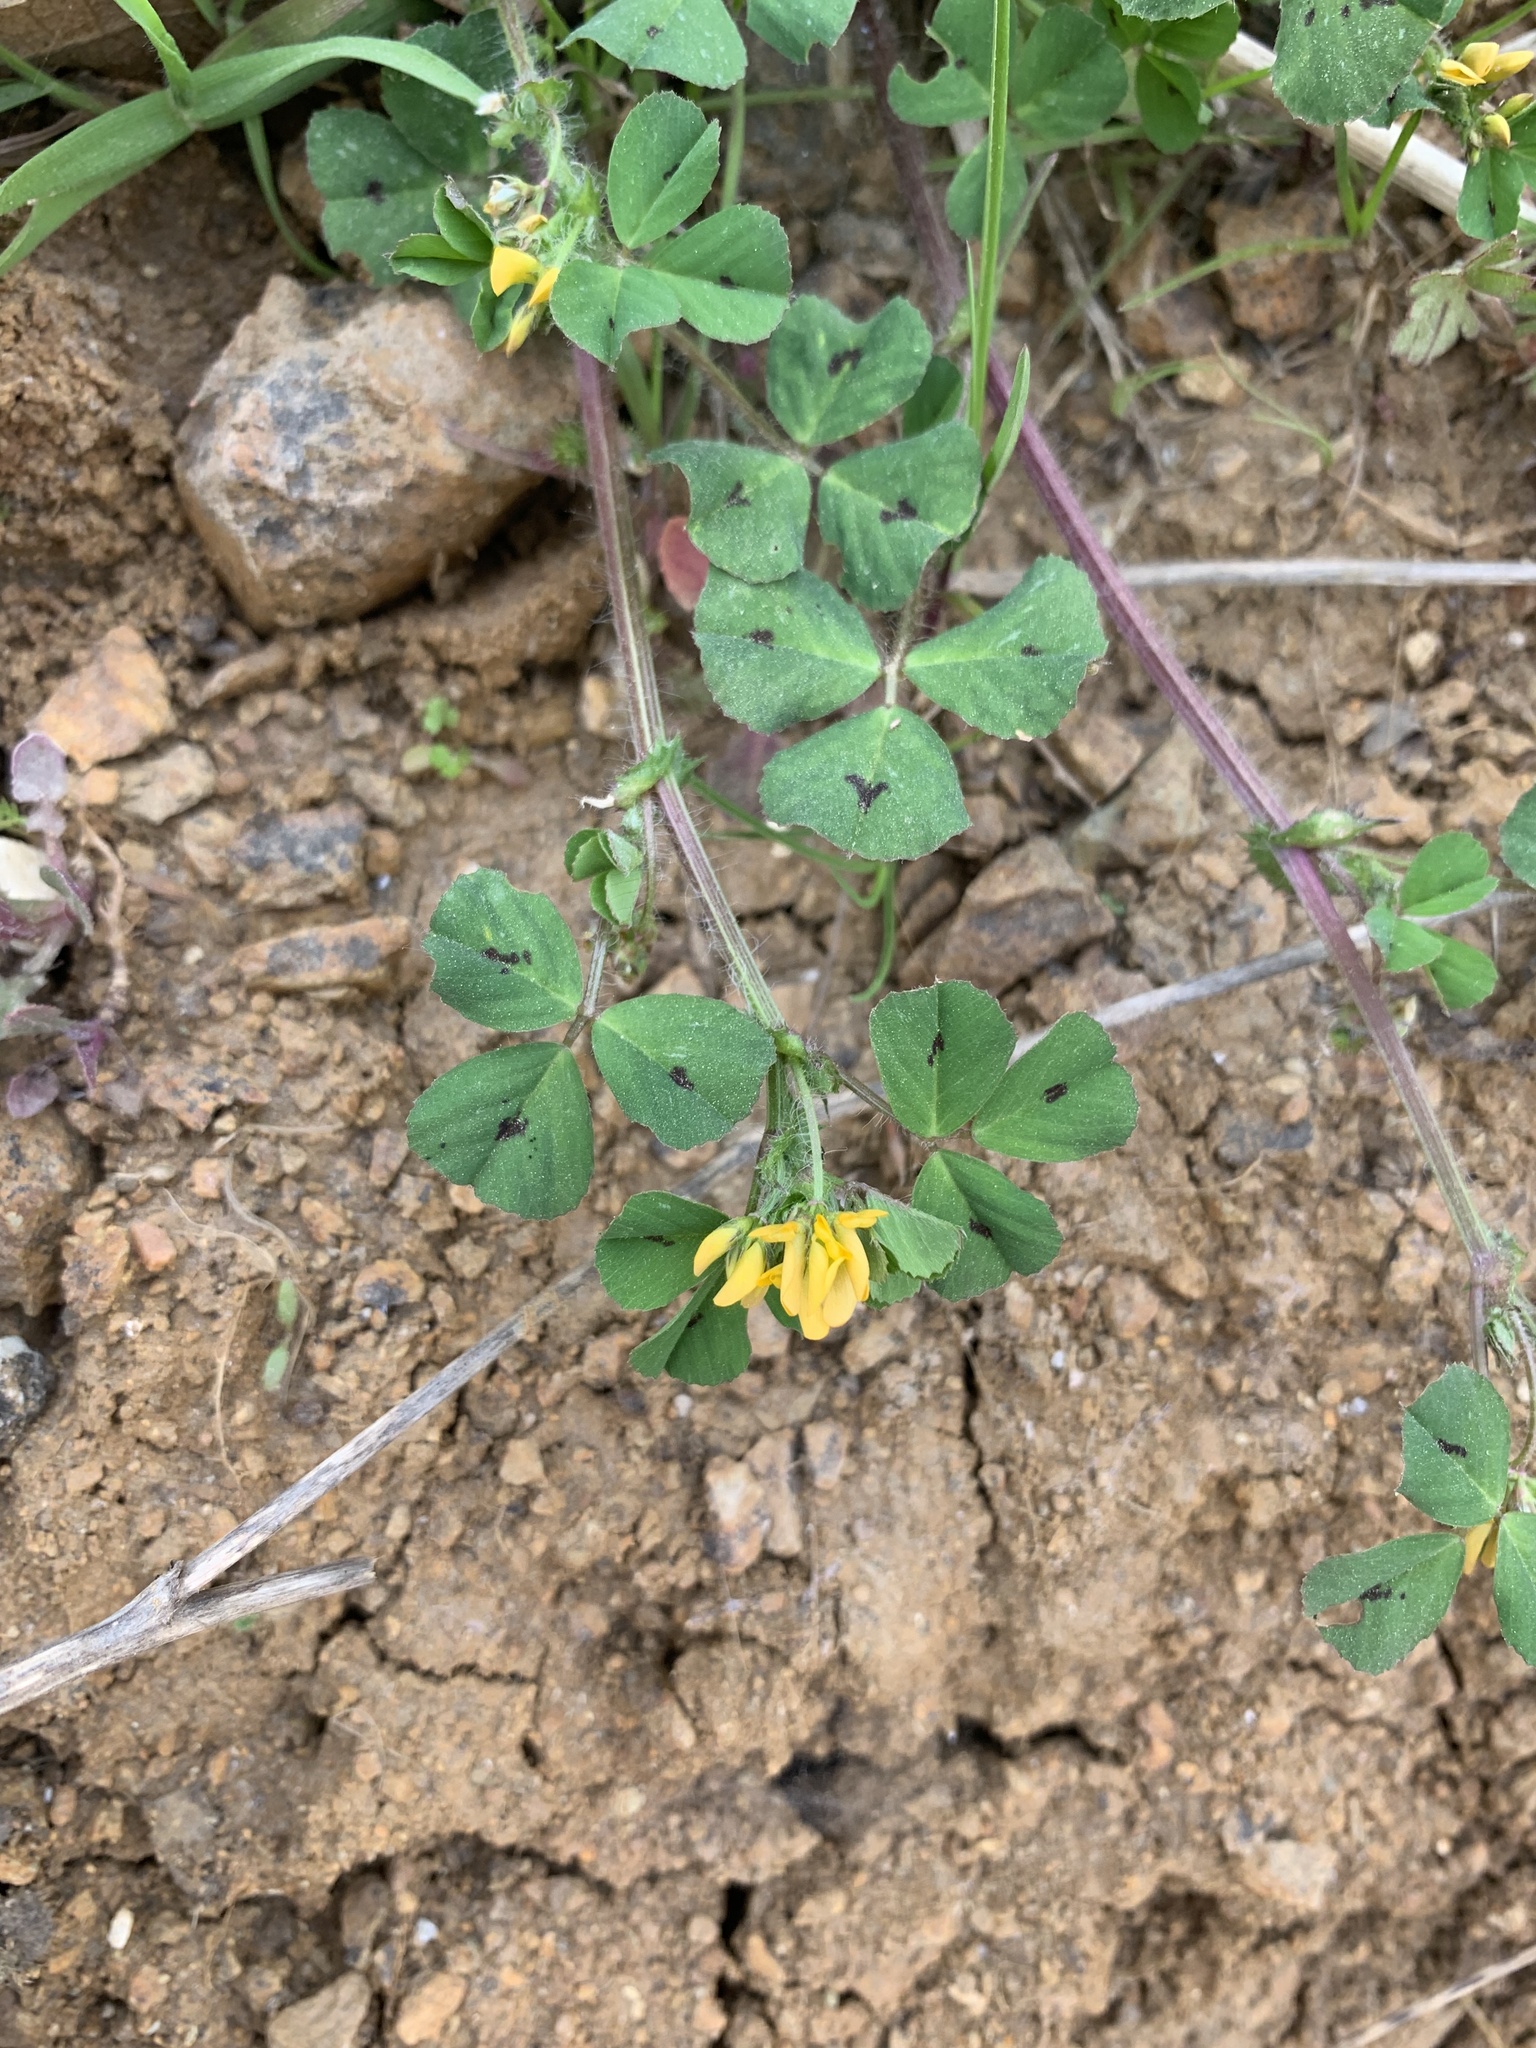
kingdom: Plantae
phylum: Tracheophyta
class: Magnoliopsida
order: Fabales
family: Fabaceae
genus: Medicago
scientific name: Medicago arabica
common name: Spotted medick
